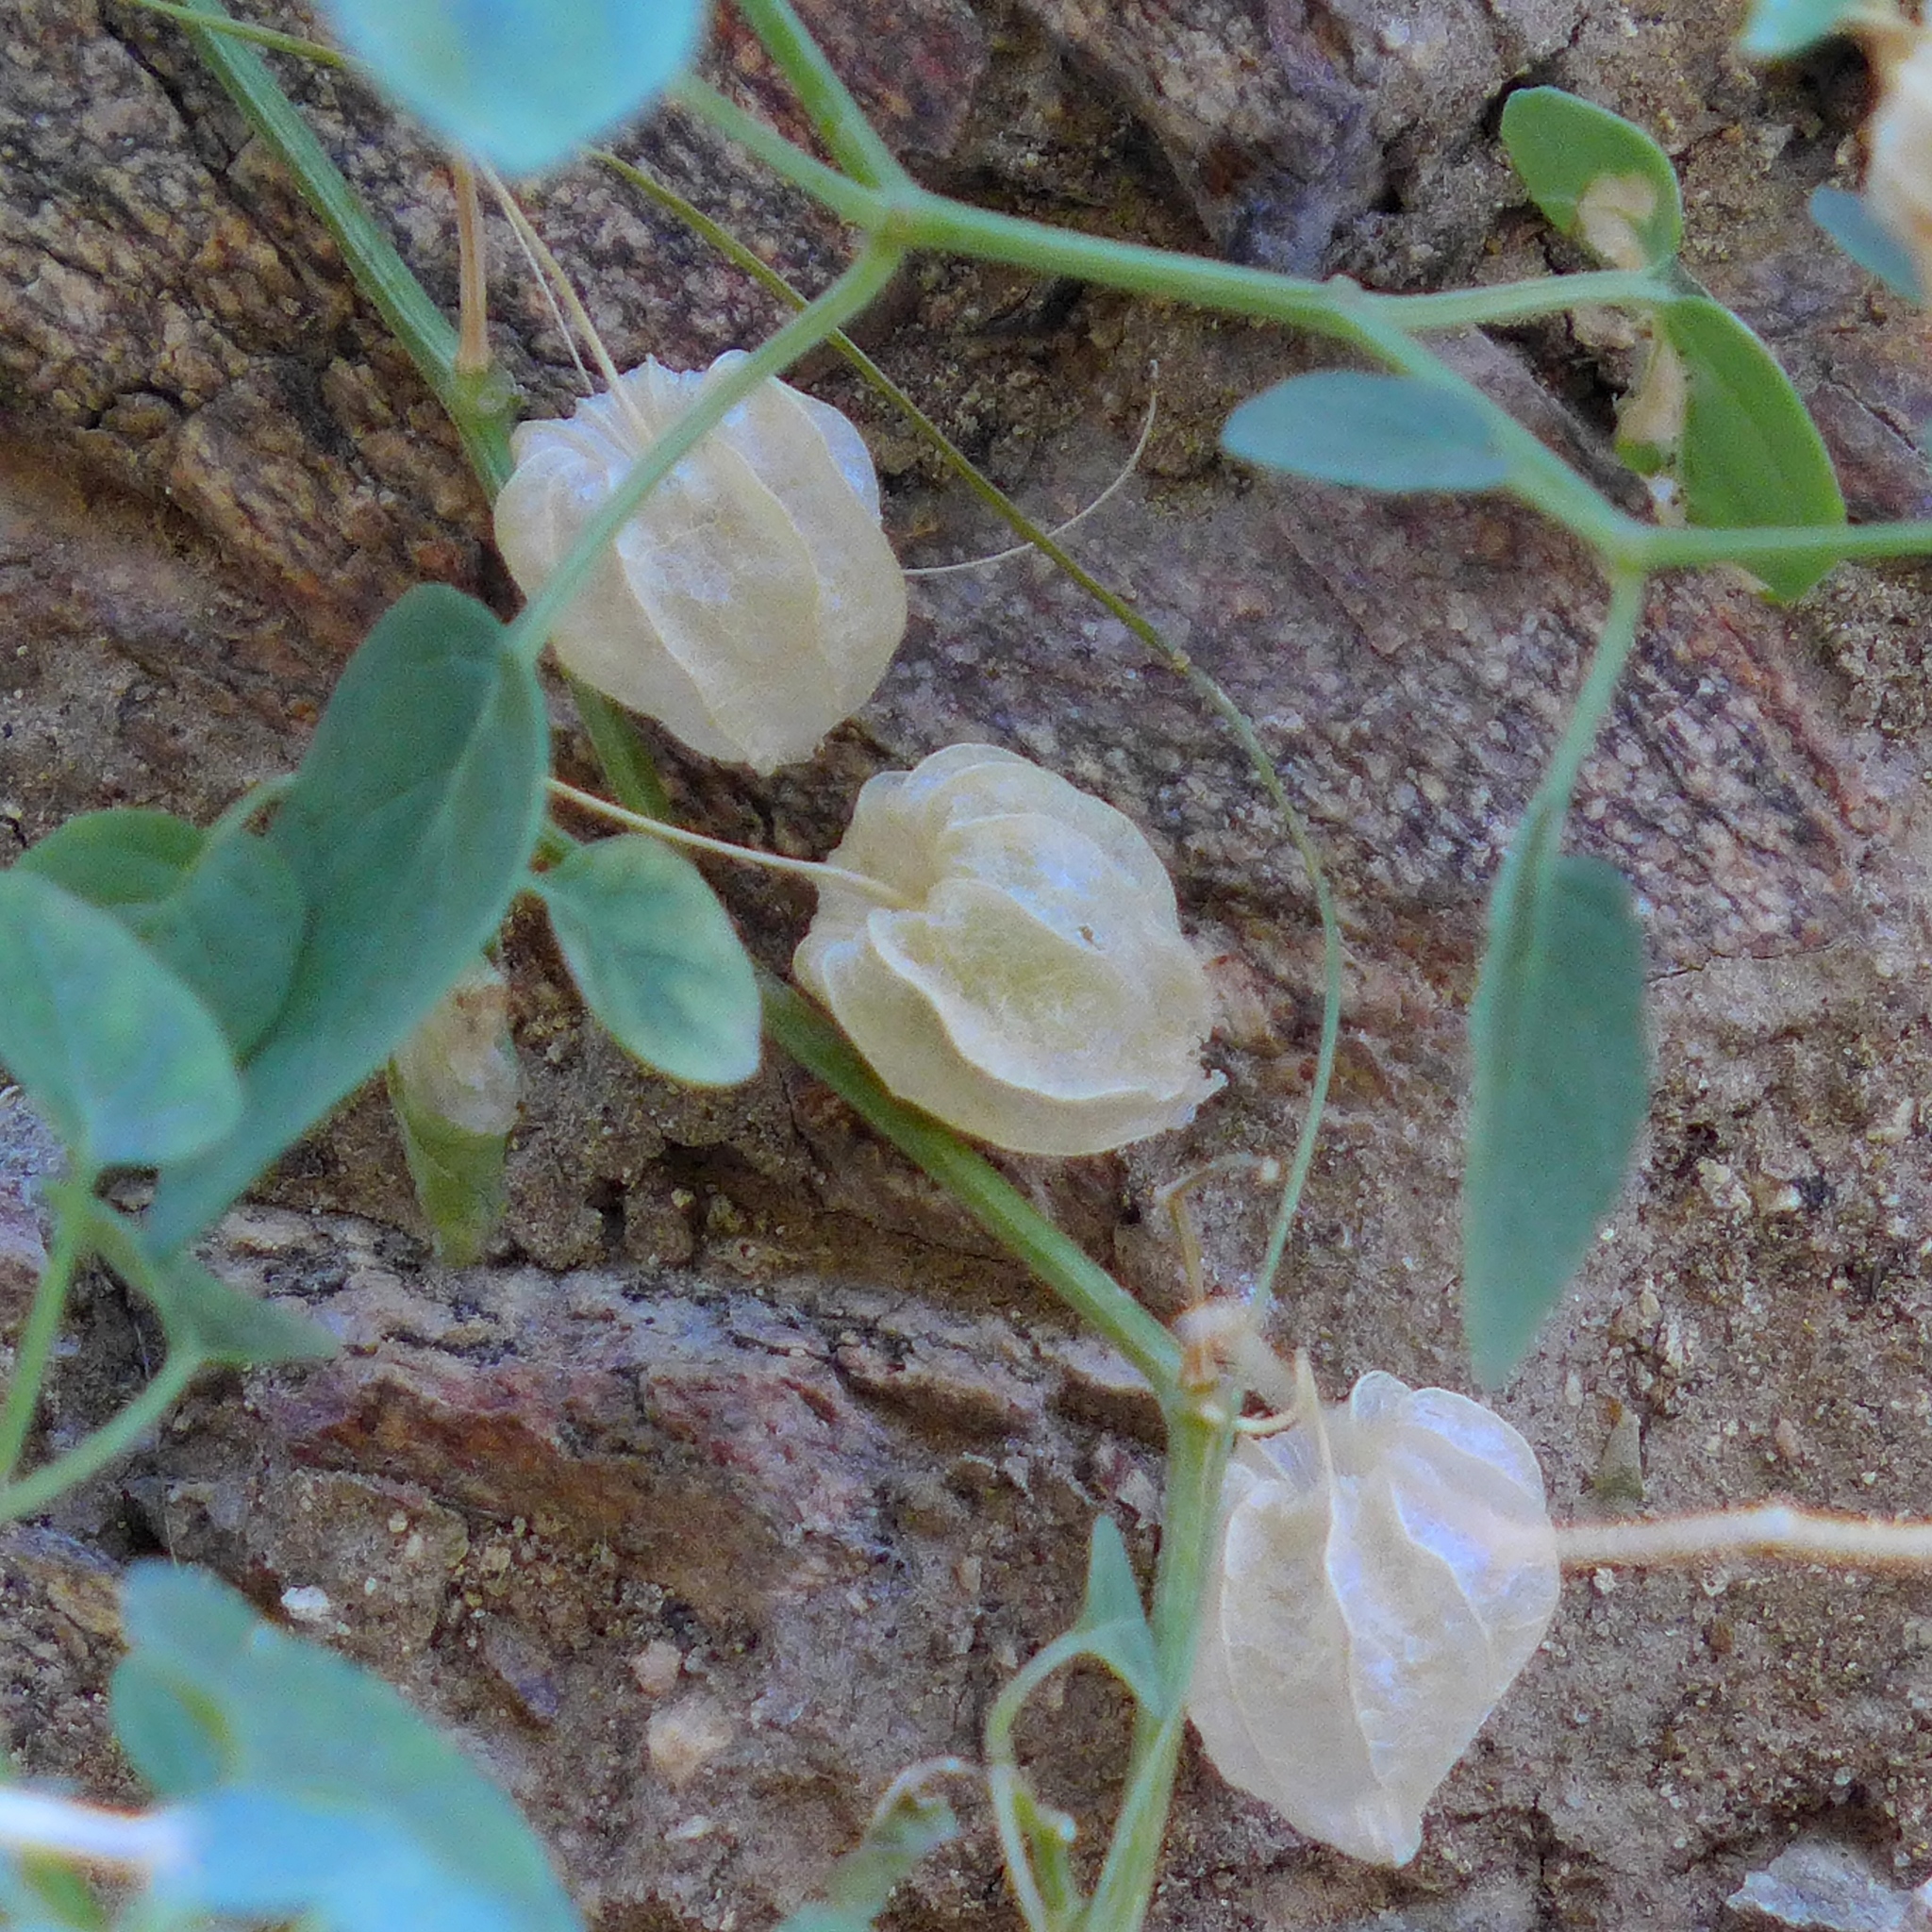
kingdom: Plantae
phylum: Tracheophyta
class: Magnoliopsida
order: Solanales
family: Solanaceae
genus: Physalis
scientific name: Physalis crassifolia
